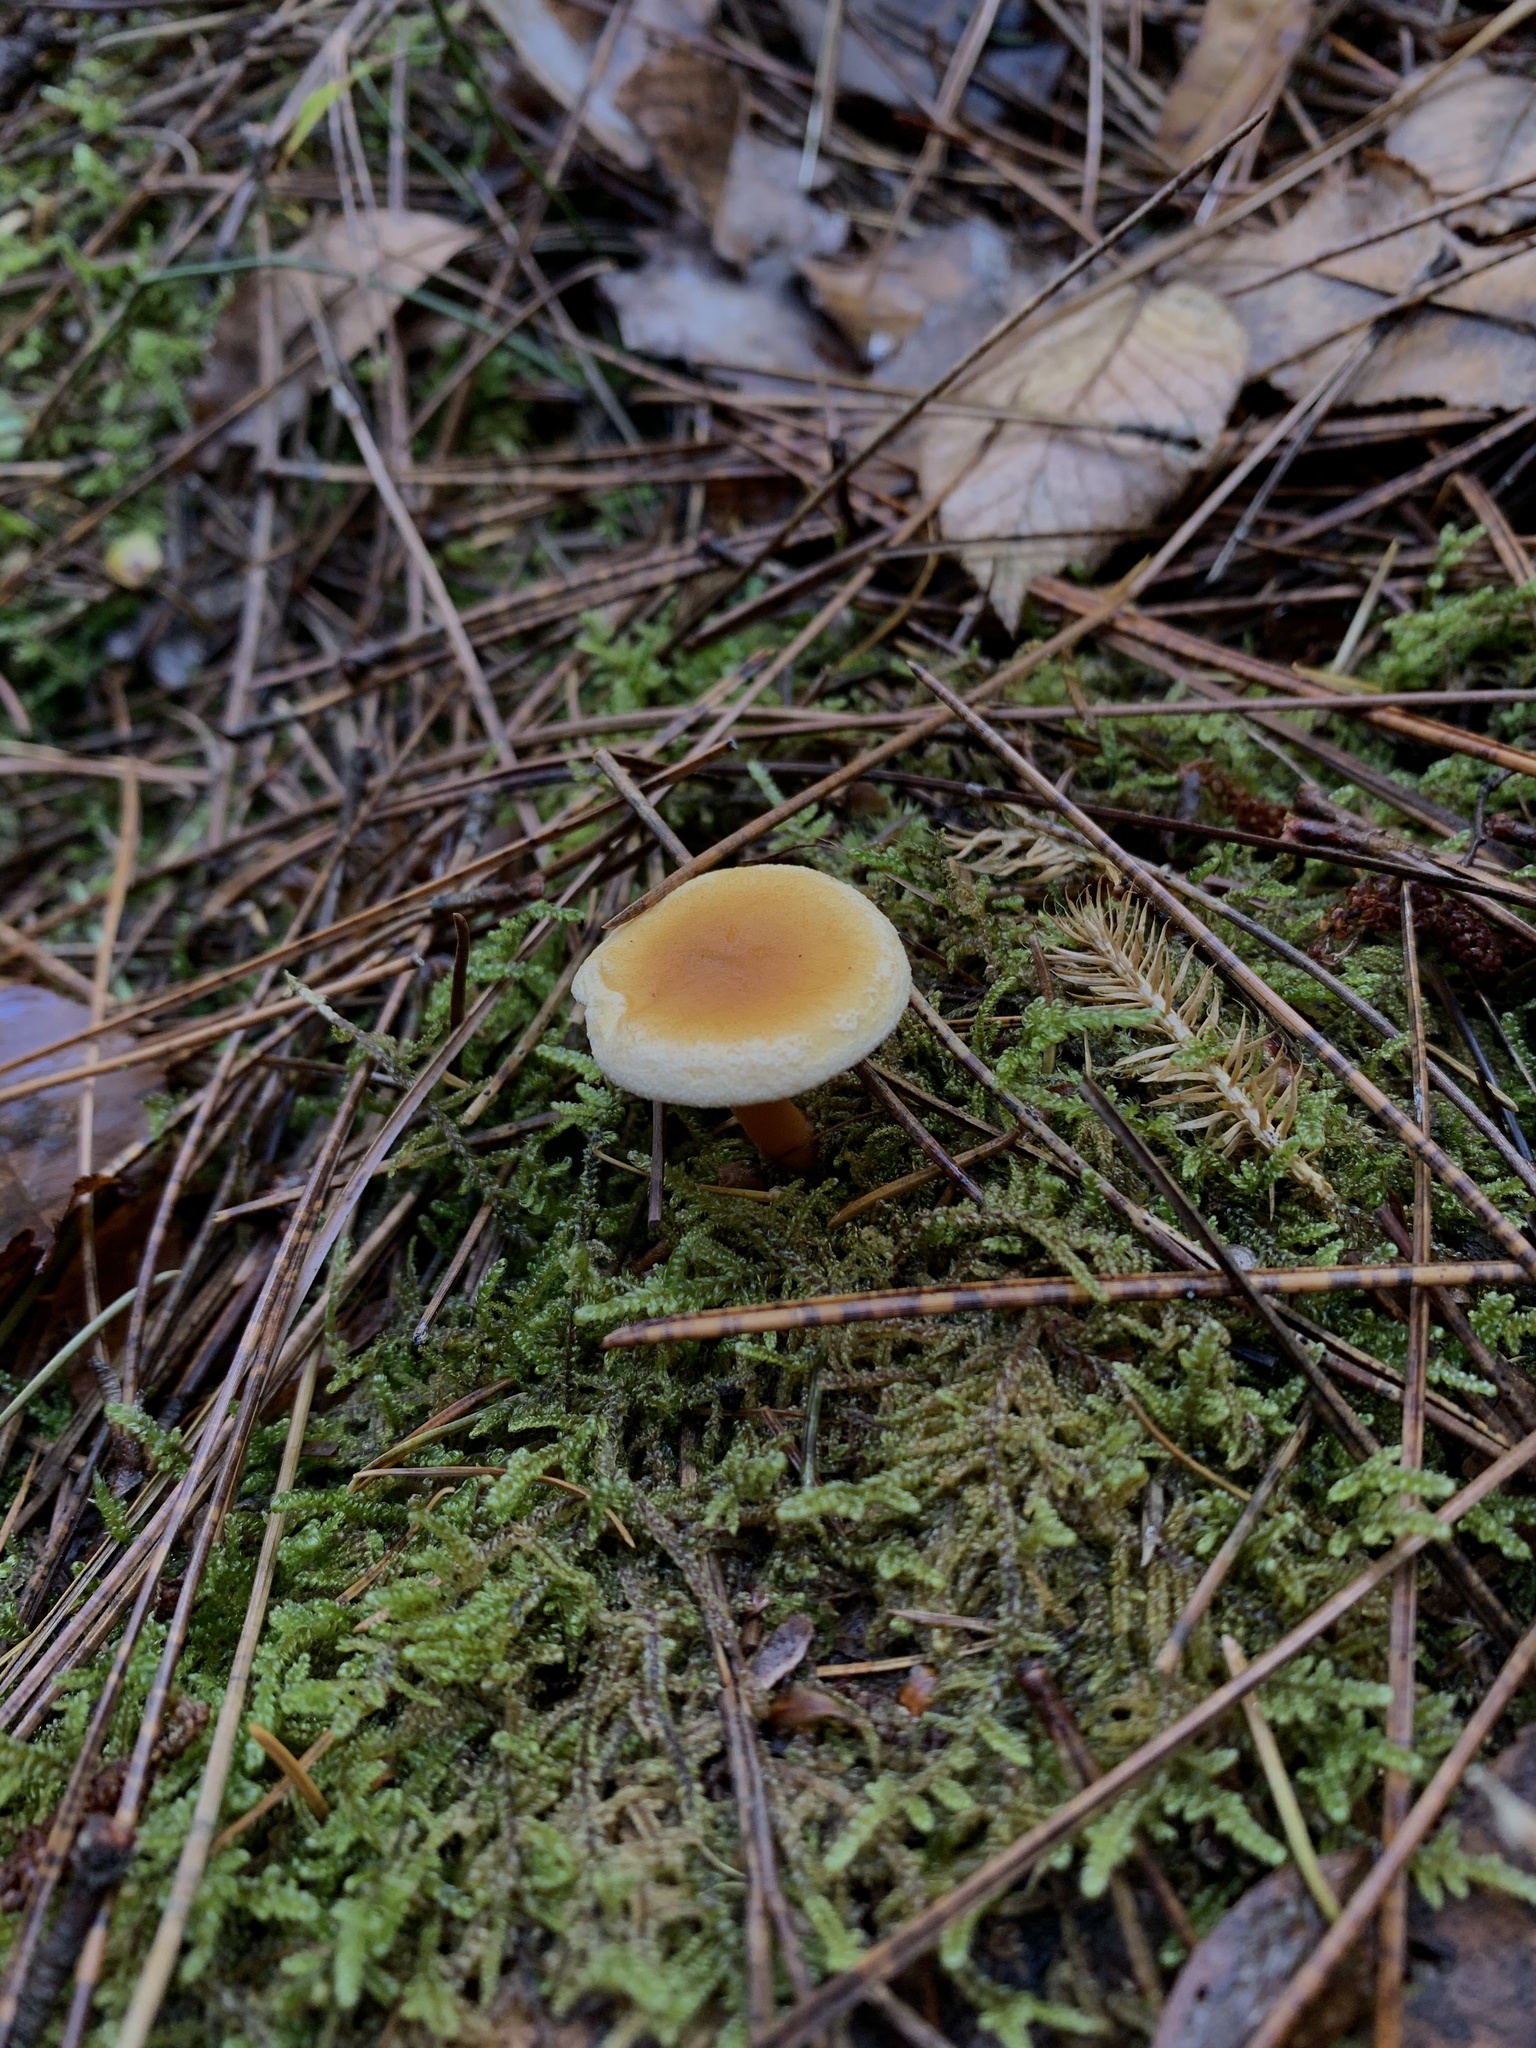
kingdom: Fungi
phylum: Basidiomycota
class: Agaricomycetes
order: Boletales
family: Hygrophoropsidaceae
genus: Hygrophoropsis
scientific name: Hygrophoropsis aurantiaca
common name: False chanterelle
